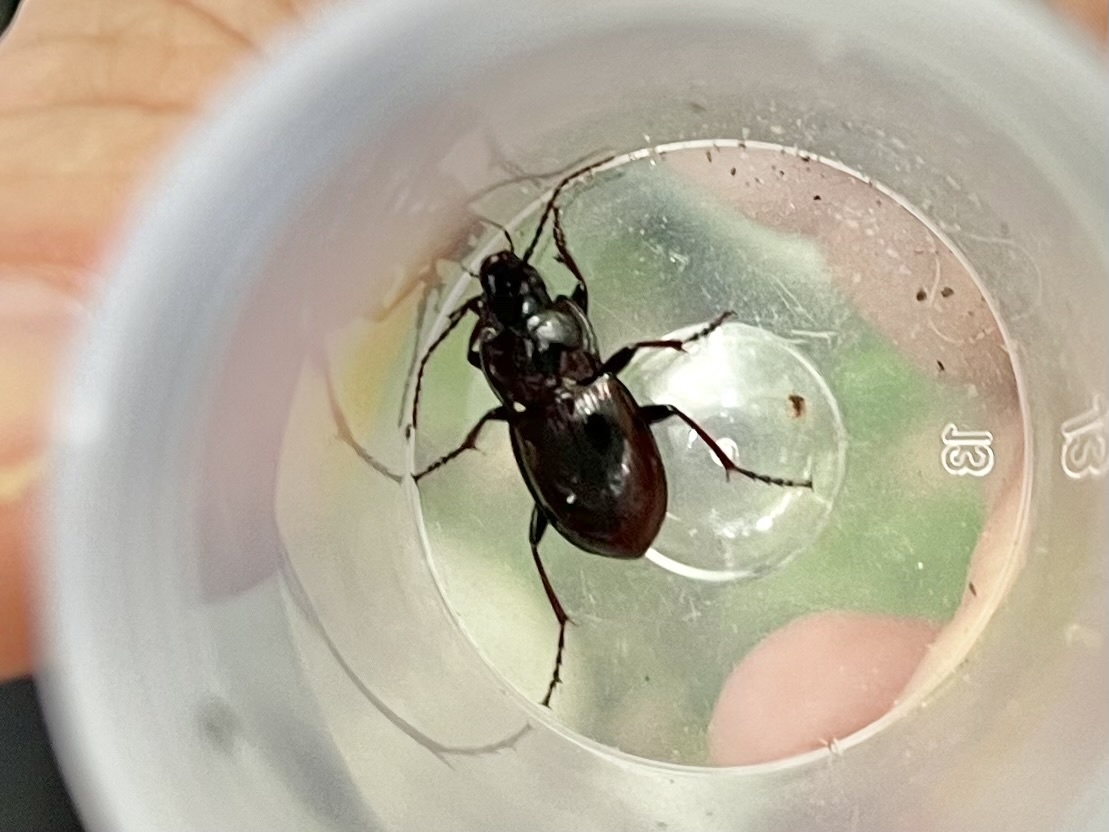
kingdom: Animalia
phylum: Arthropoda
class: Insecta
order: Coleoptera
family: Carabidae
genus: Pterostichus
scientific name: Pterostichus burmeisteri
